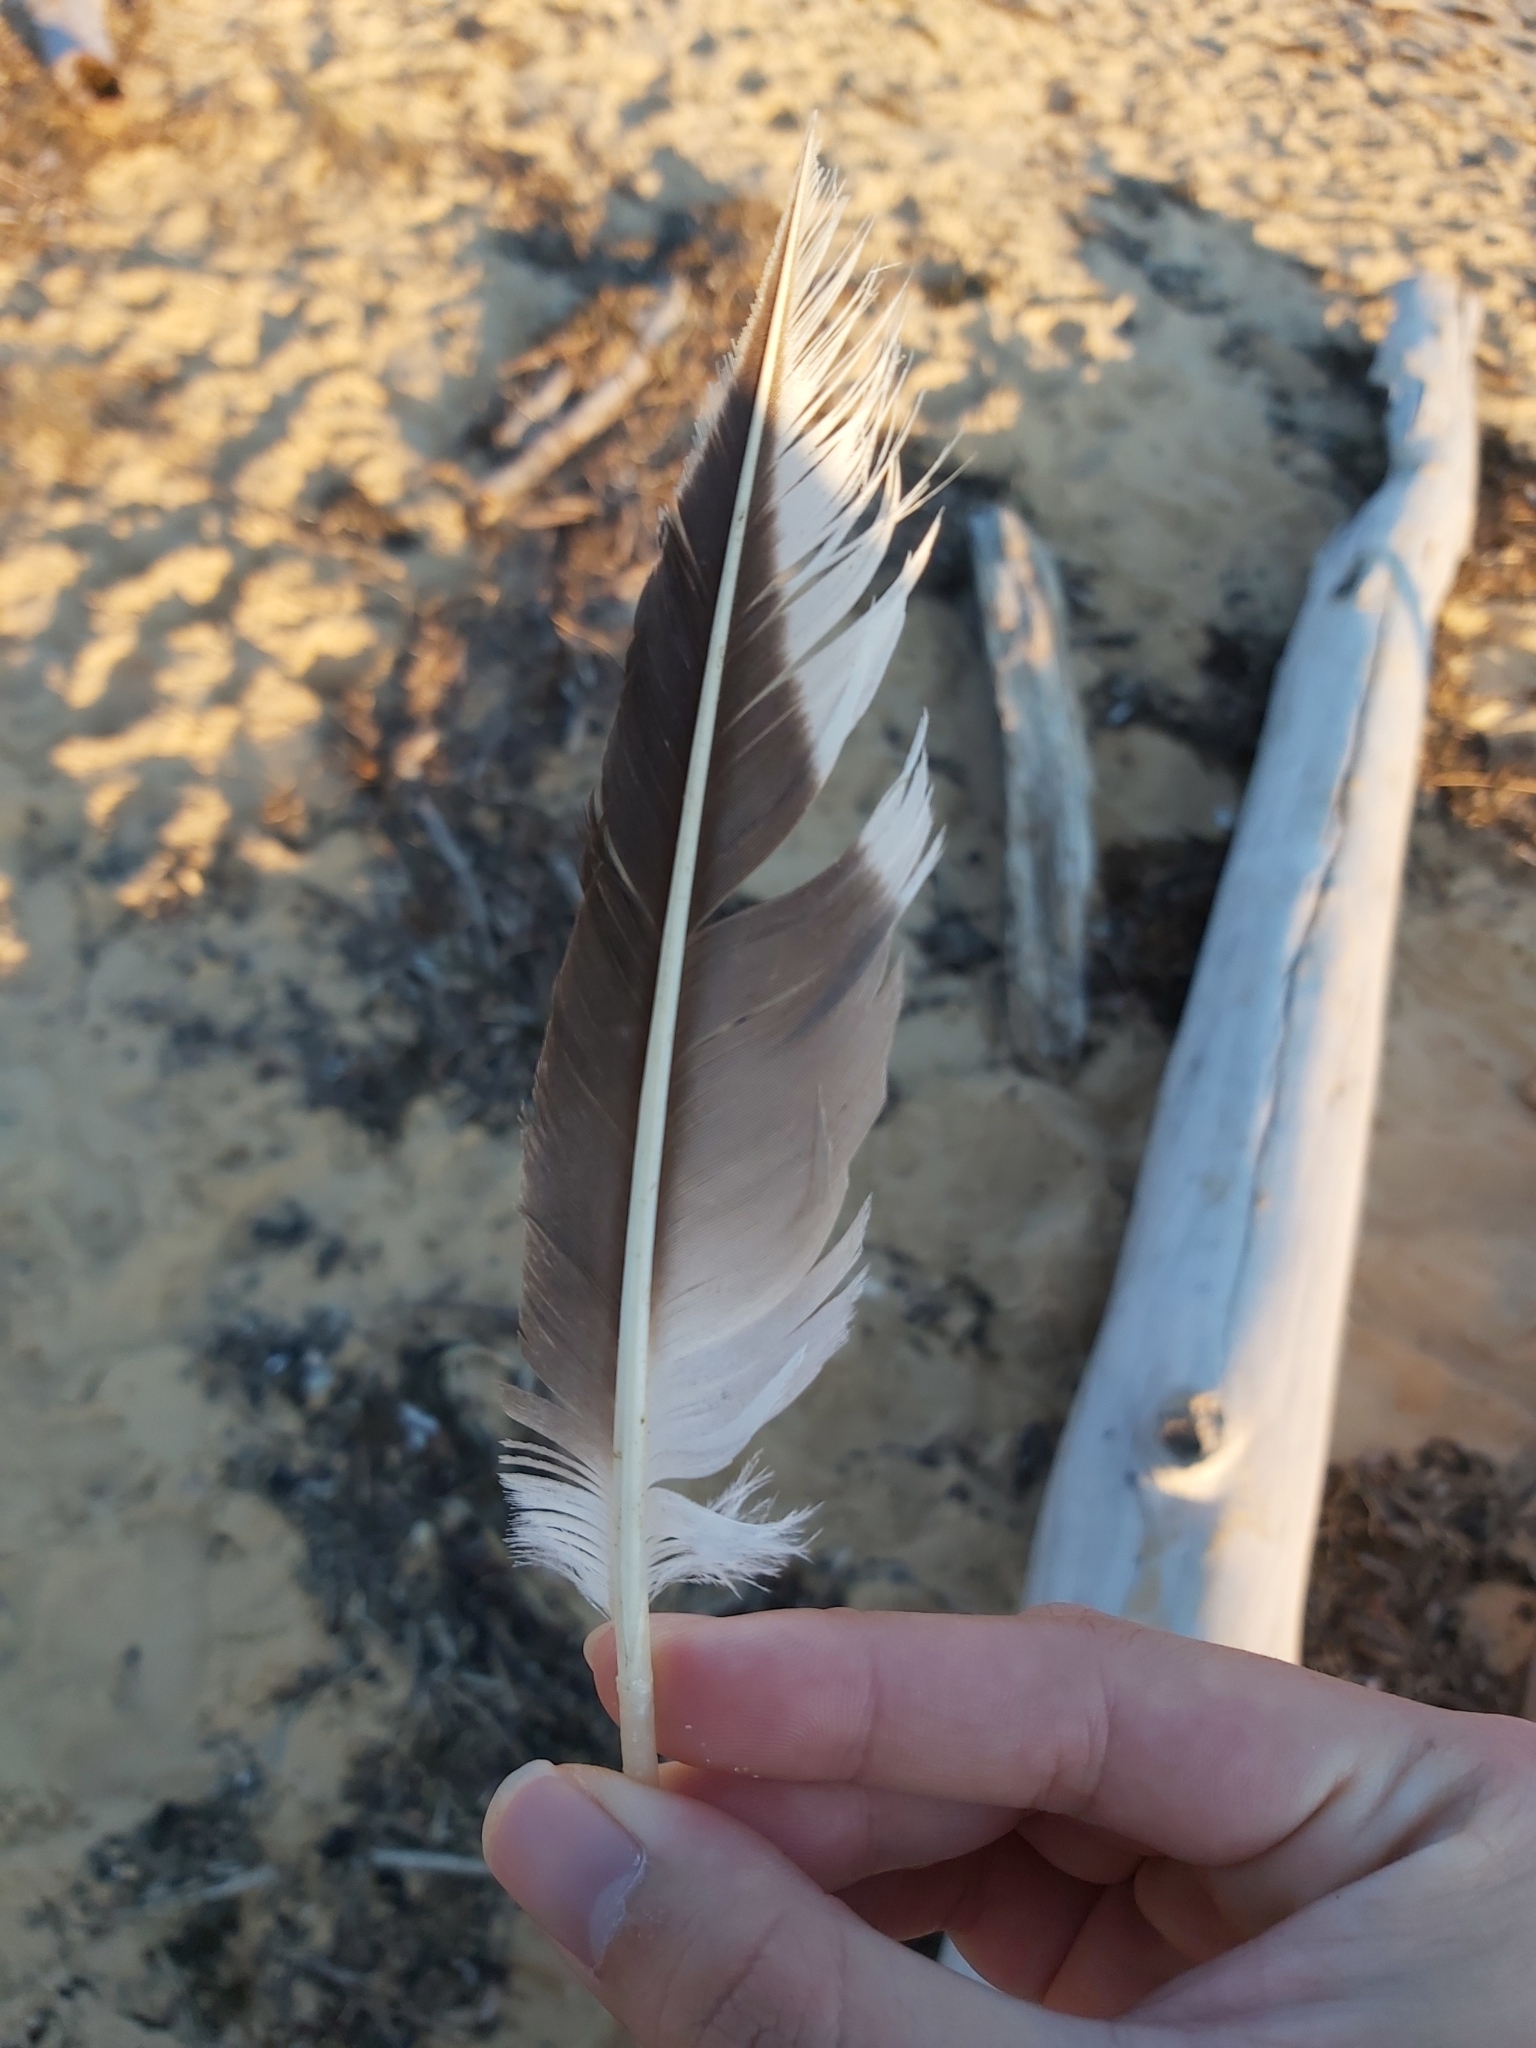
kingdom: Animalia
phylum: Chordata
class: Aves
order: Suliformes
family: Sulidae
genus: Morus
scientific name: Morus serrator
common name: Australasian gannet
